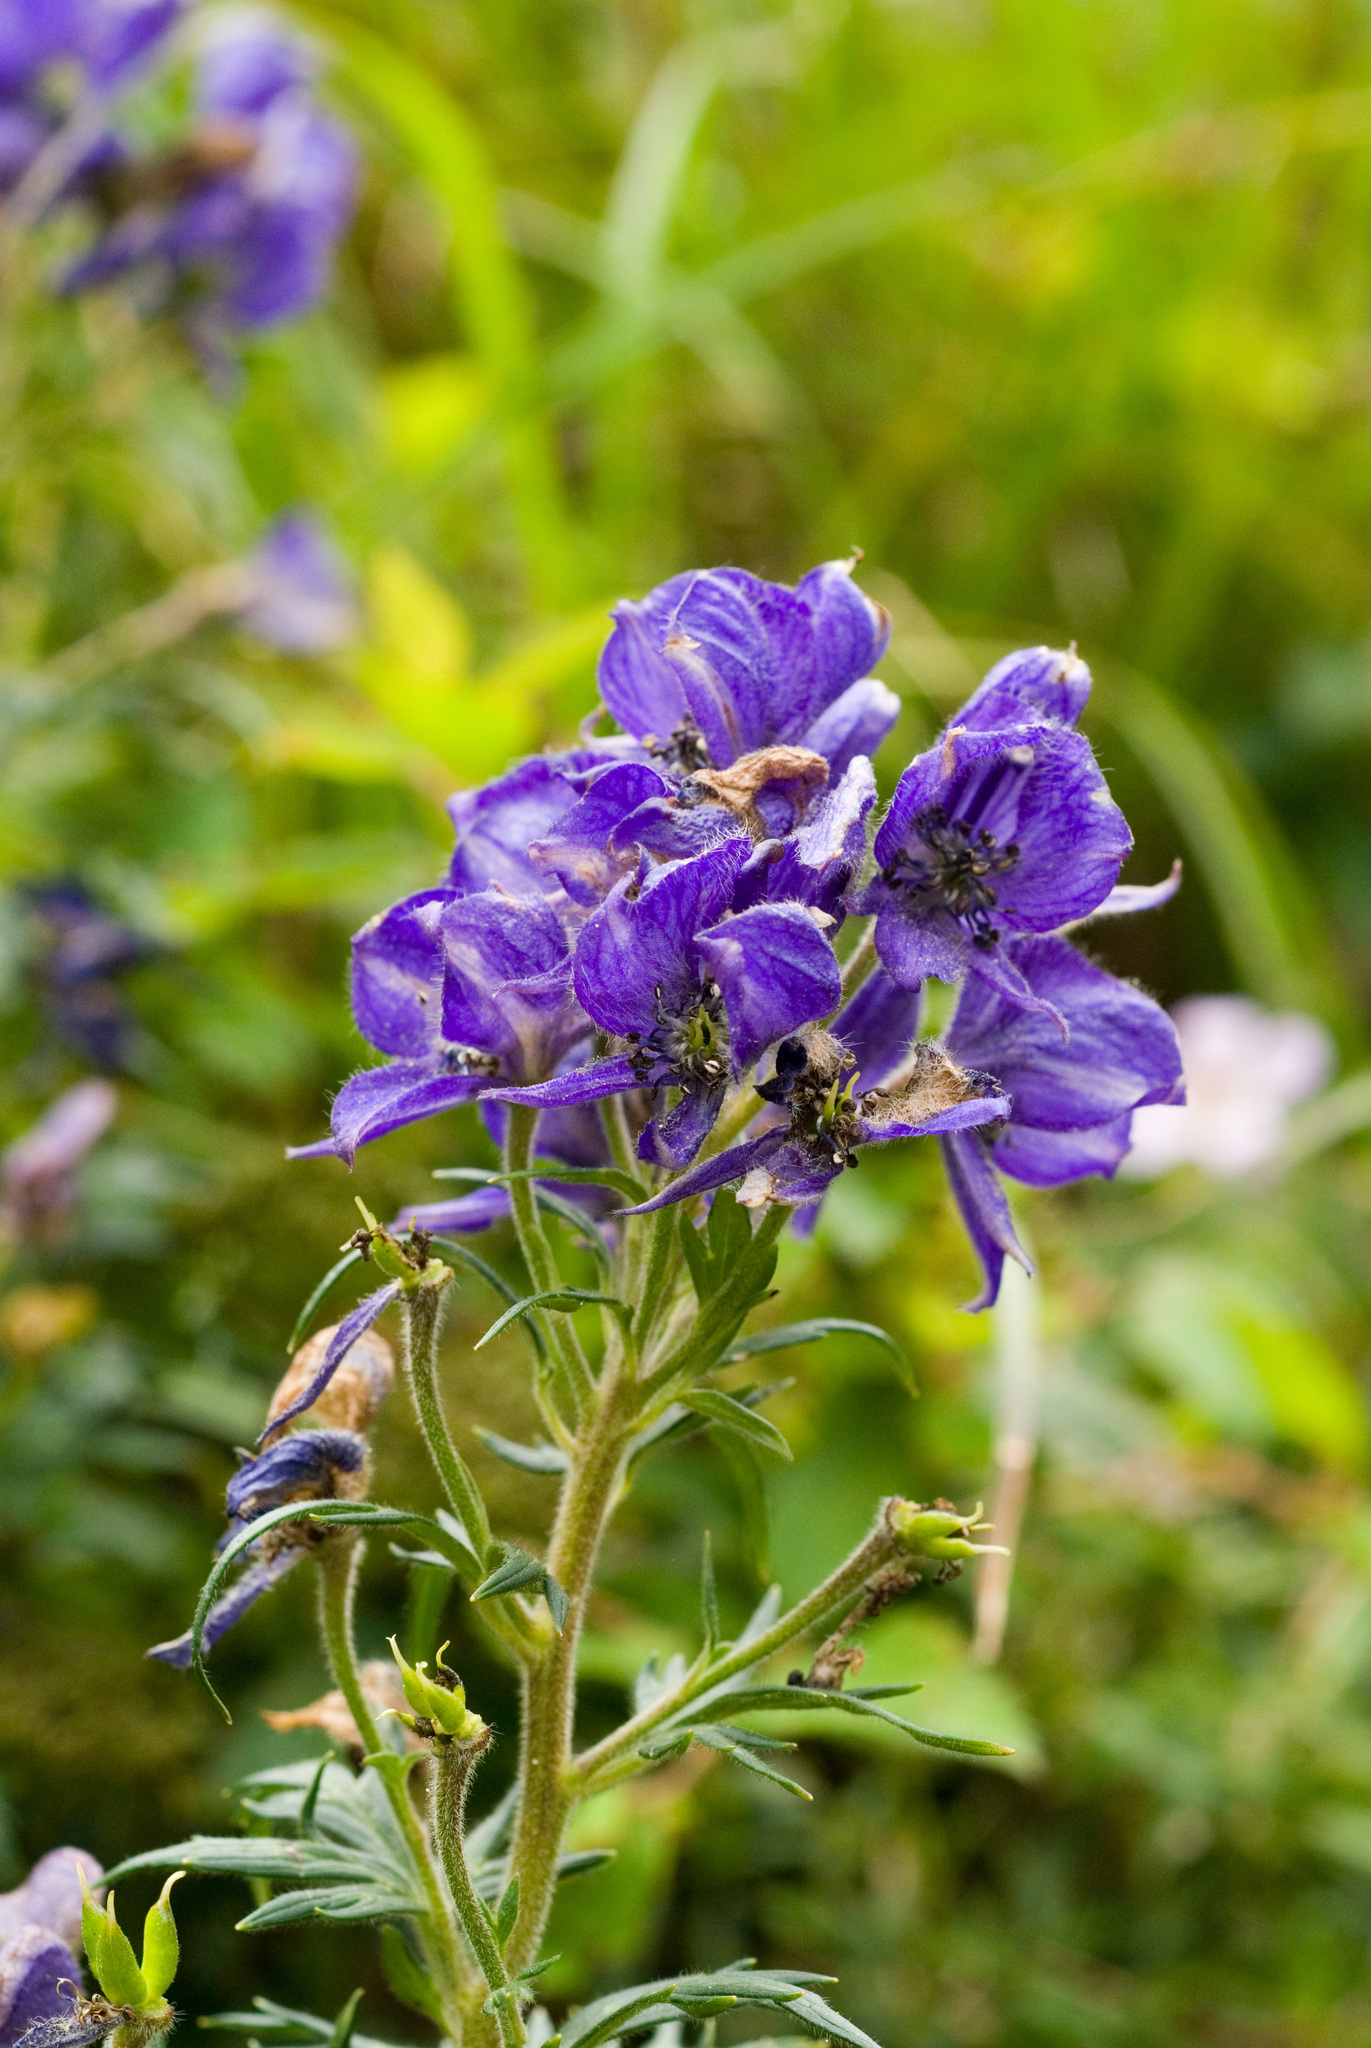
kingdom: Plantae
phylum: Tracheophyta
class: Magnoliopsida
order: Ranunculales
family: Ranunculaceae
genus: Aconitum
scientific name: Aconitum fukutomei
